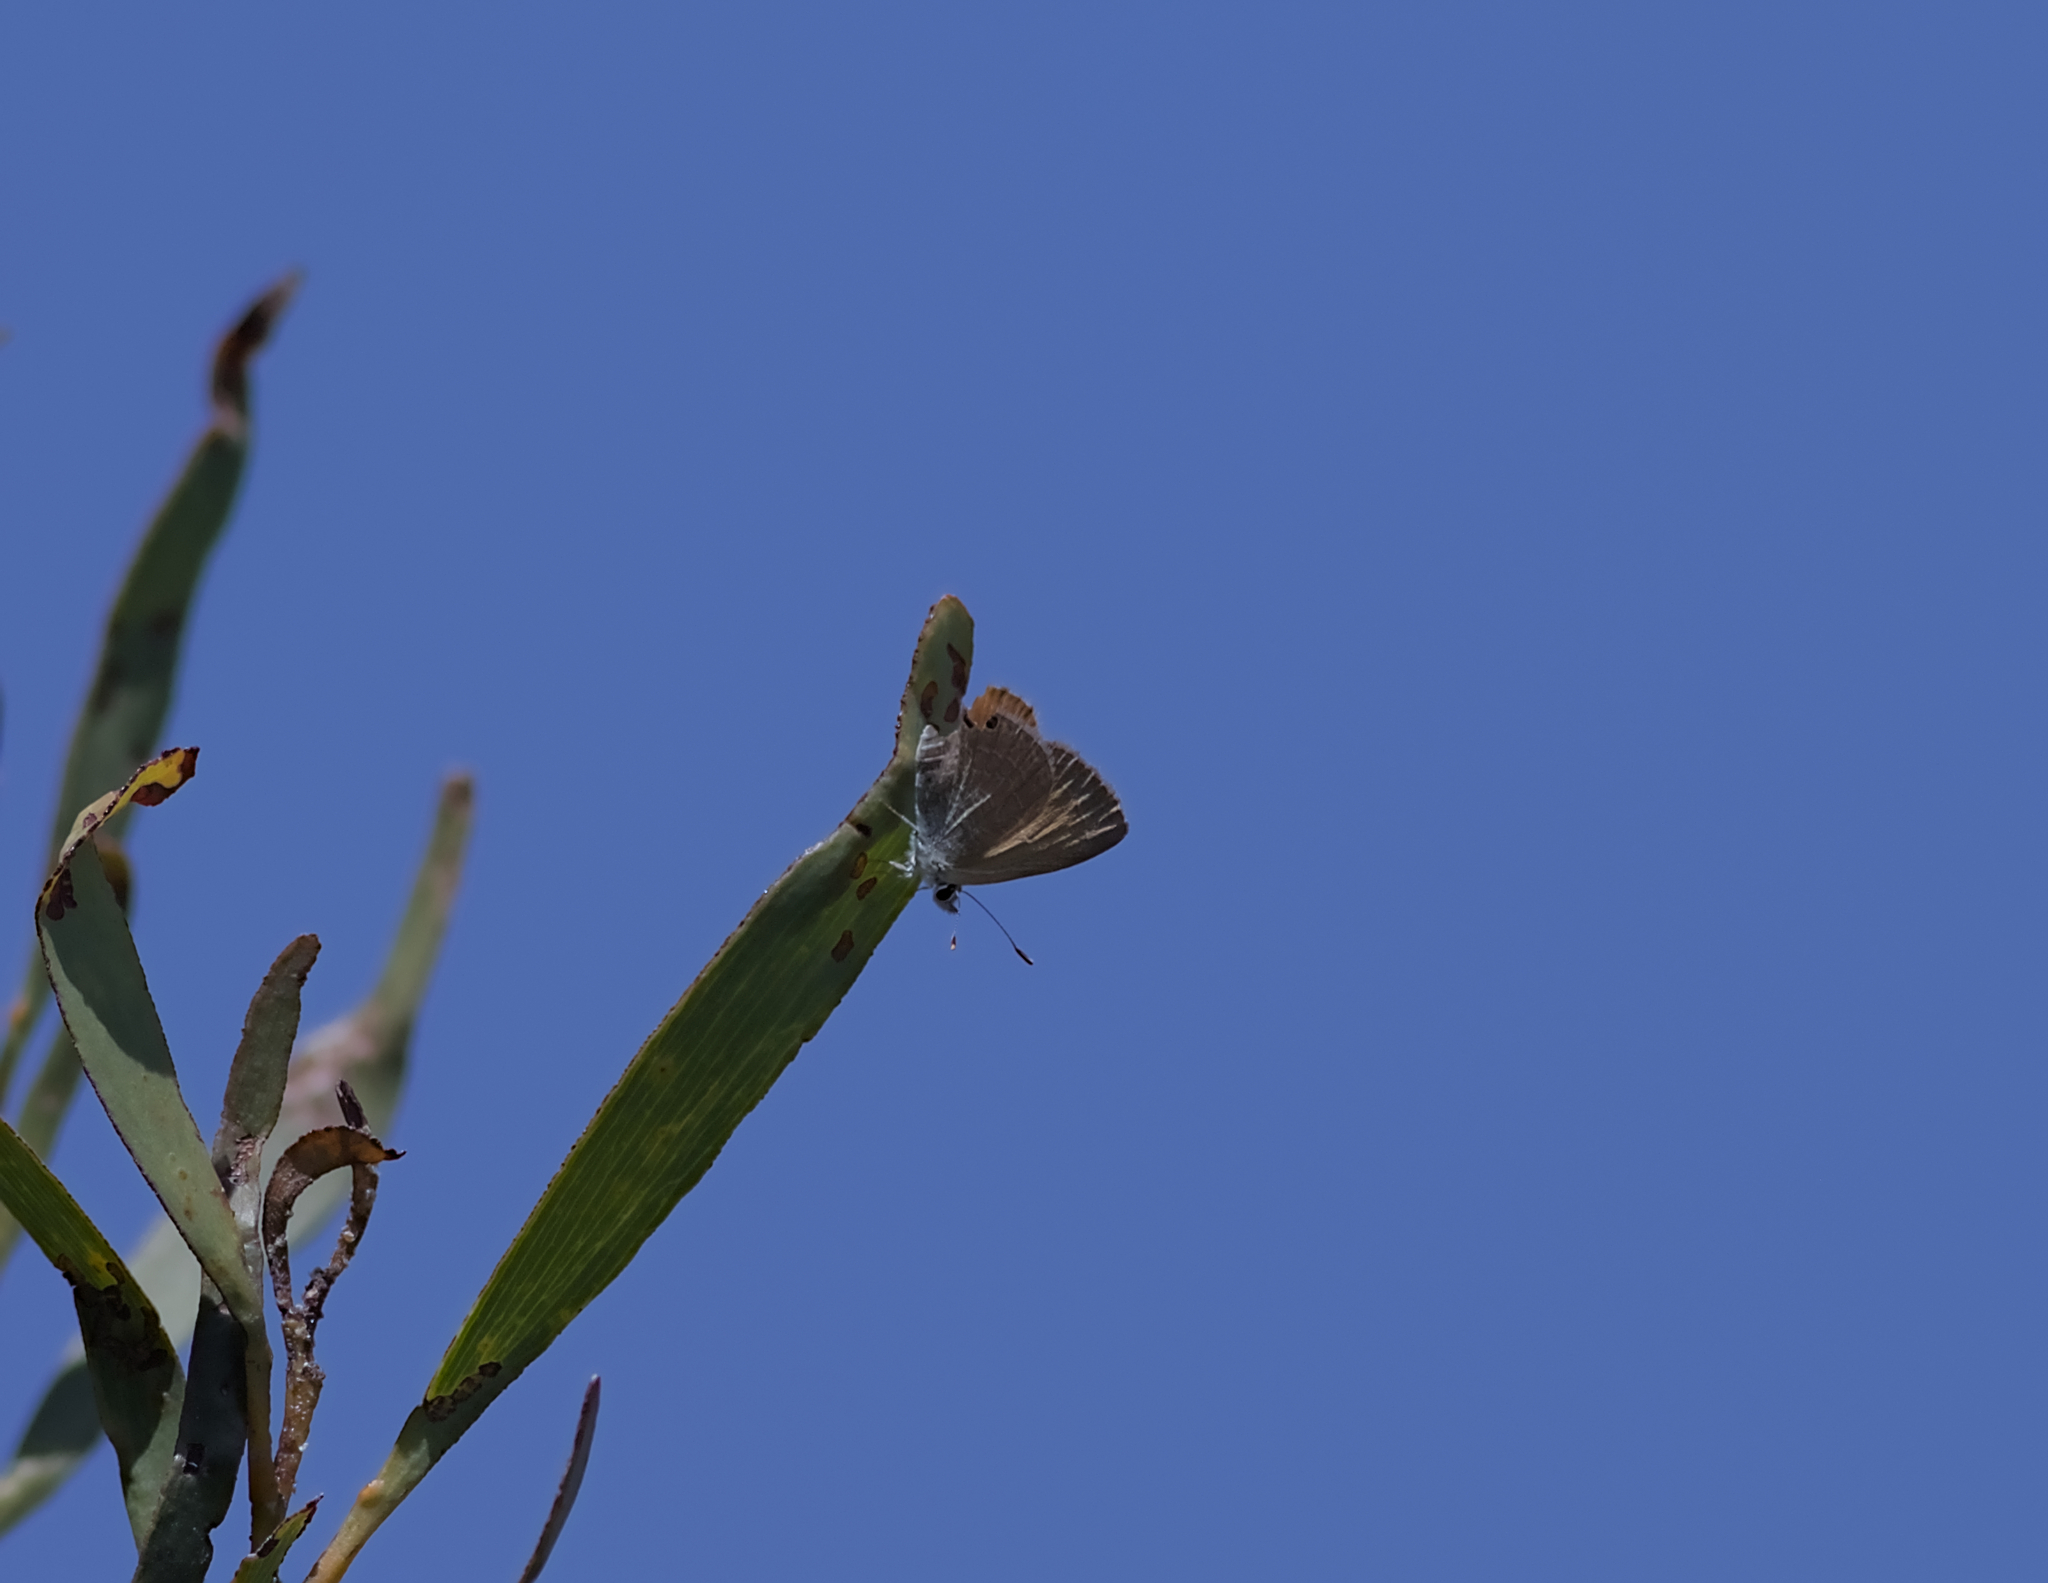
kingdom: Animalia
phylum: Arthropoda
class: Insecta
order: Lepidoptera
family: Lycaenidae
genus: Nacaduba
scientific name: Nacaduba biocellata
